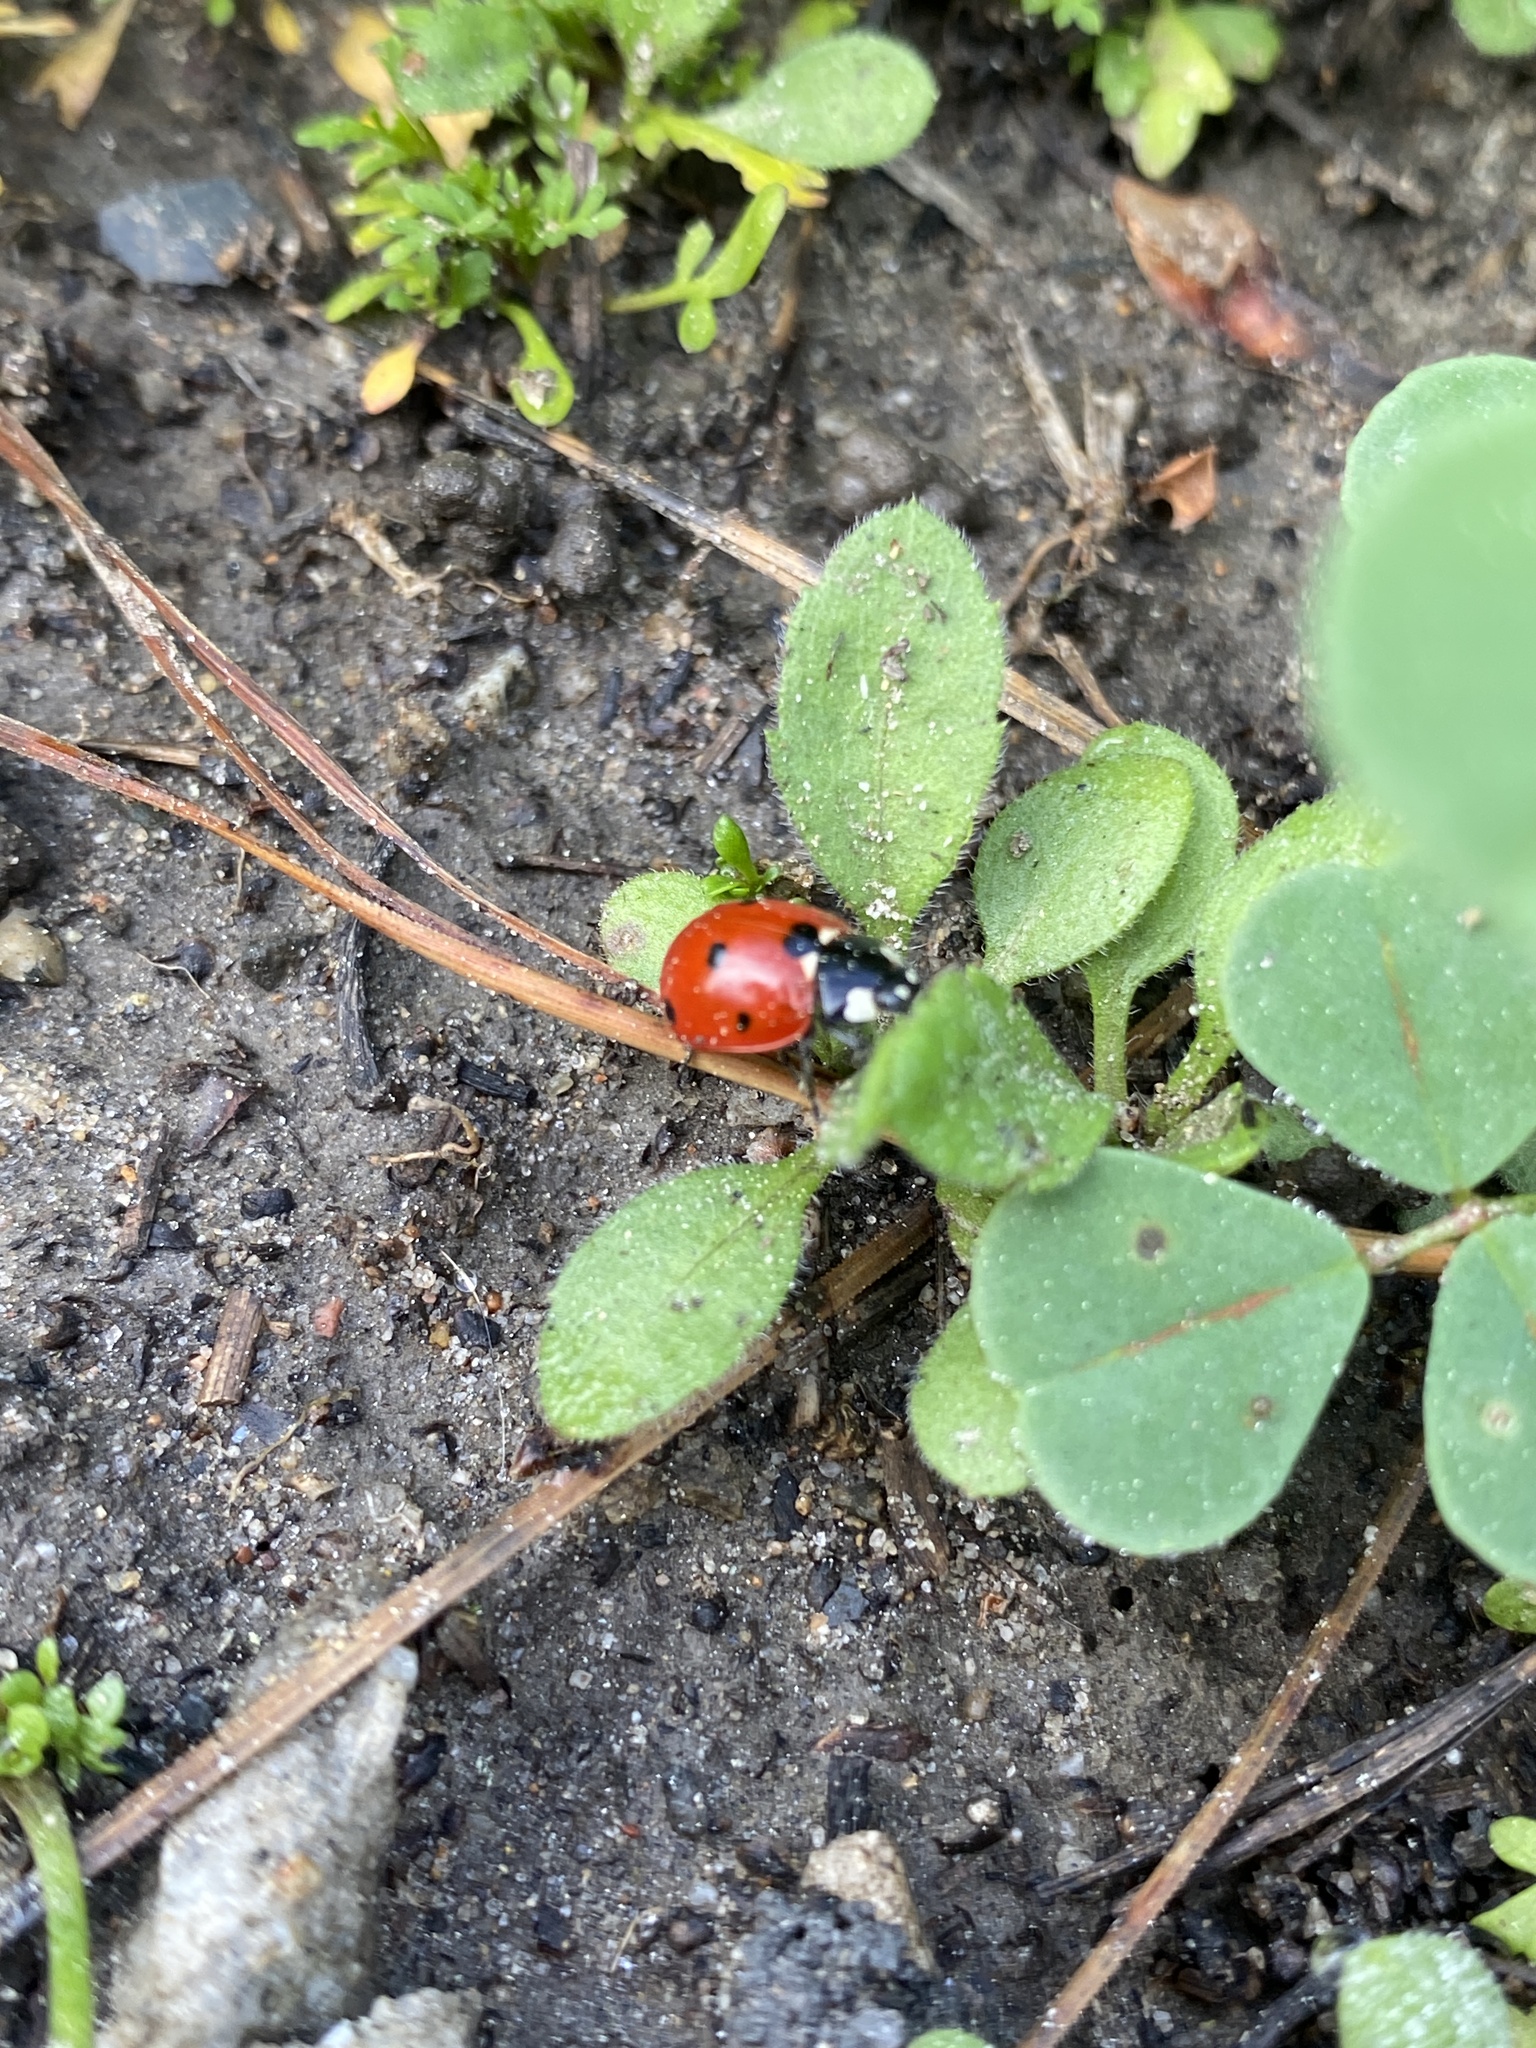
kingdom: Animalia
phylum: Arthropoda
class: Insecta
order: Coleoptera
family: Coccinellidae
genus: Coccinella
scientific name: Coccinella septempunctata
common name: Sevenspotted lady beetle
